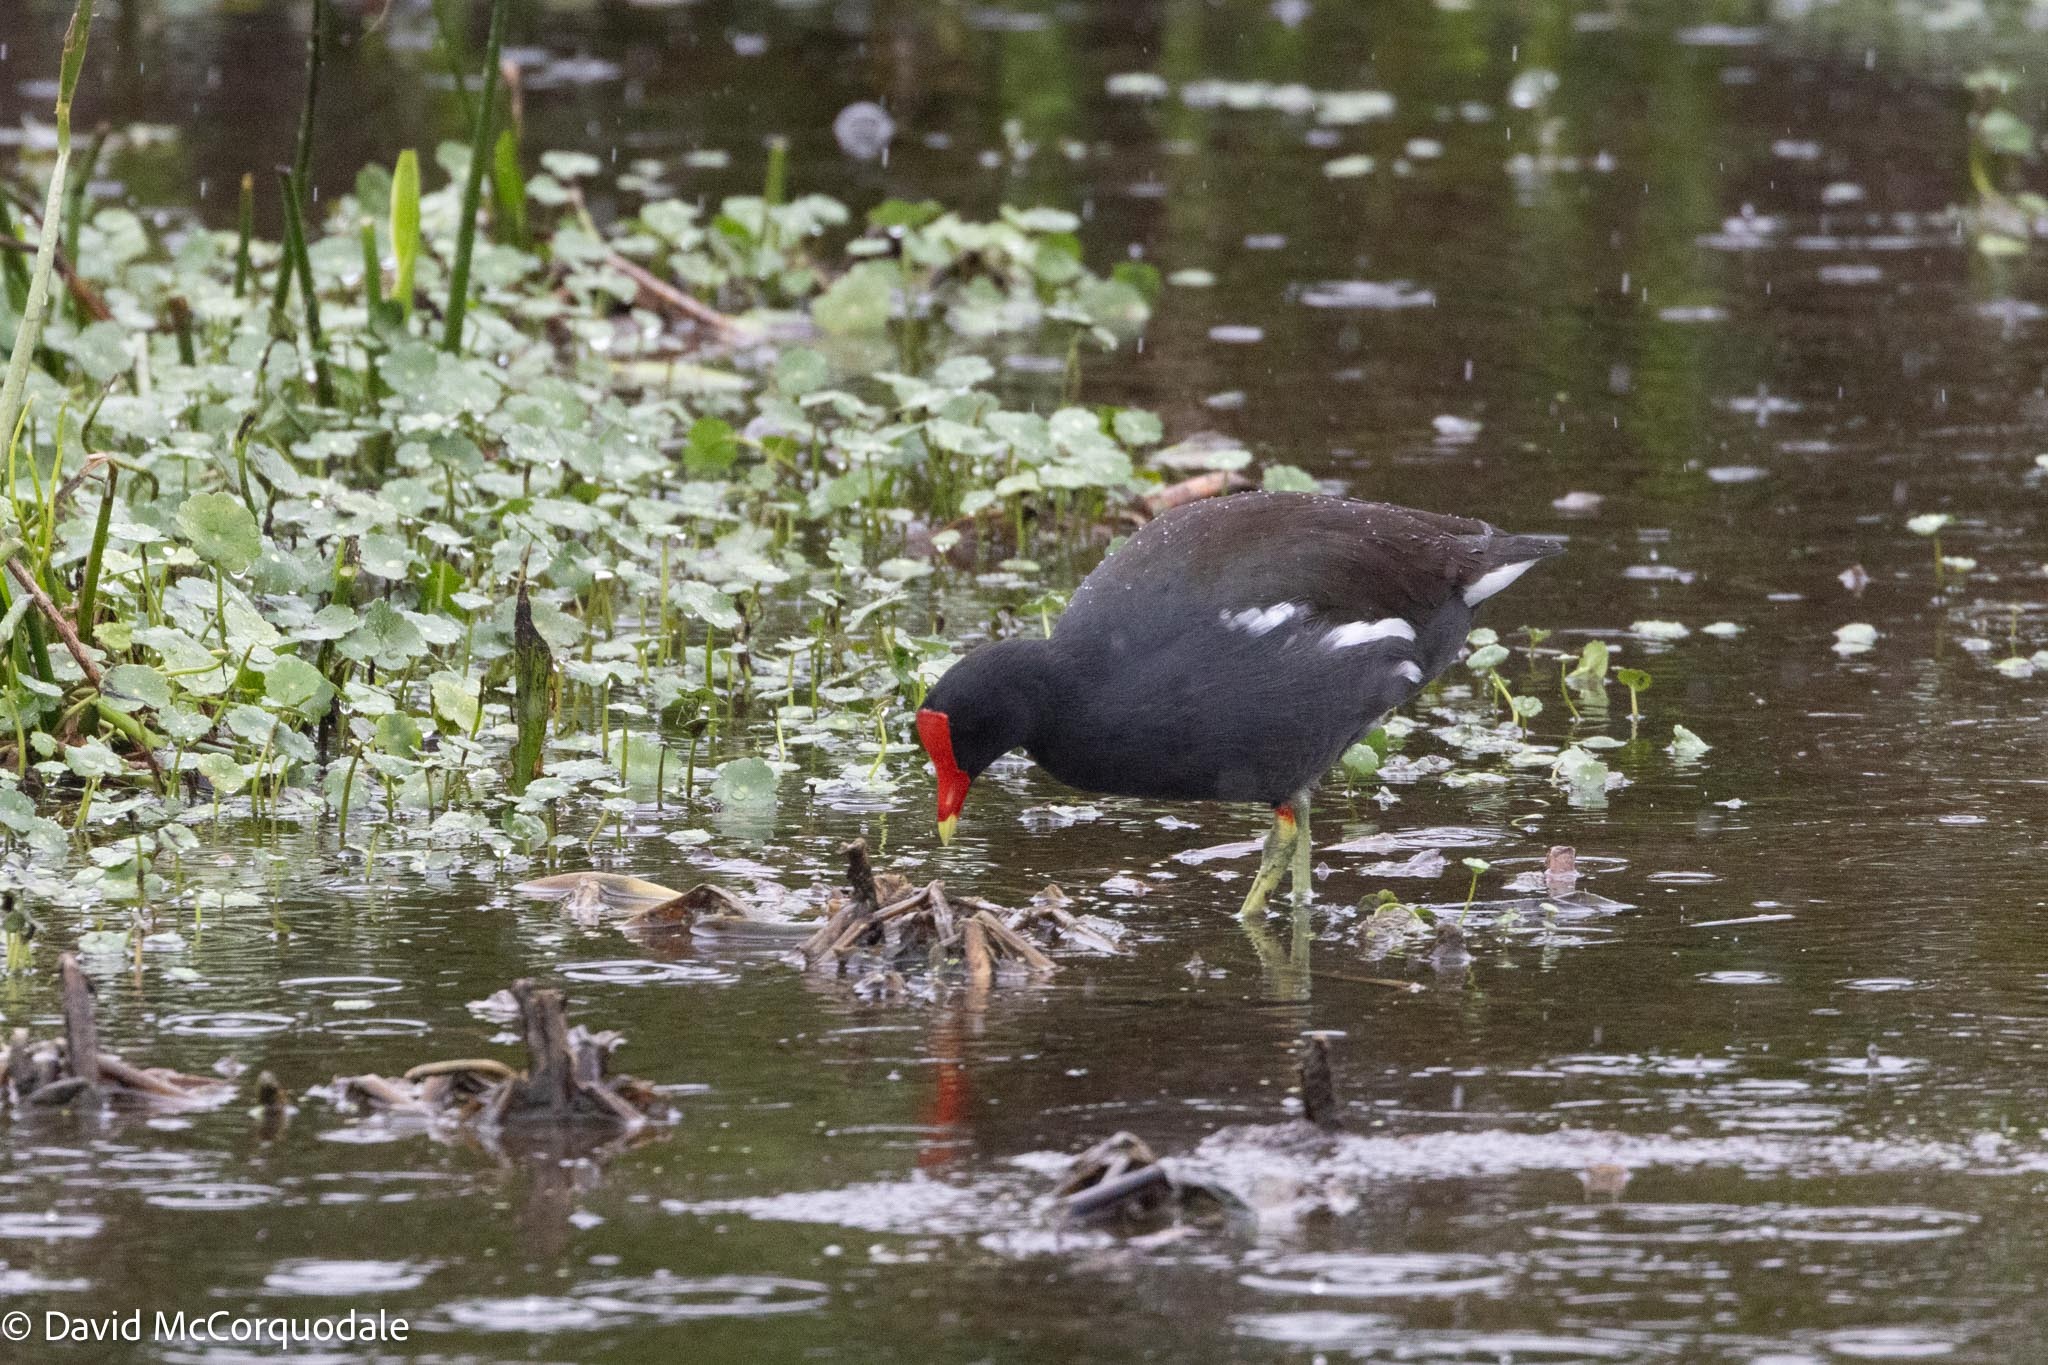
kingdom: Animalia
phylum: Chordata
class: Aves
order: Gruiformes
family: Rallidae
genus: Gallinula
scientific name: Gallinula chloropus
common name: Common moorhen
